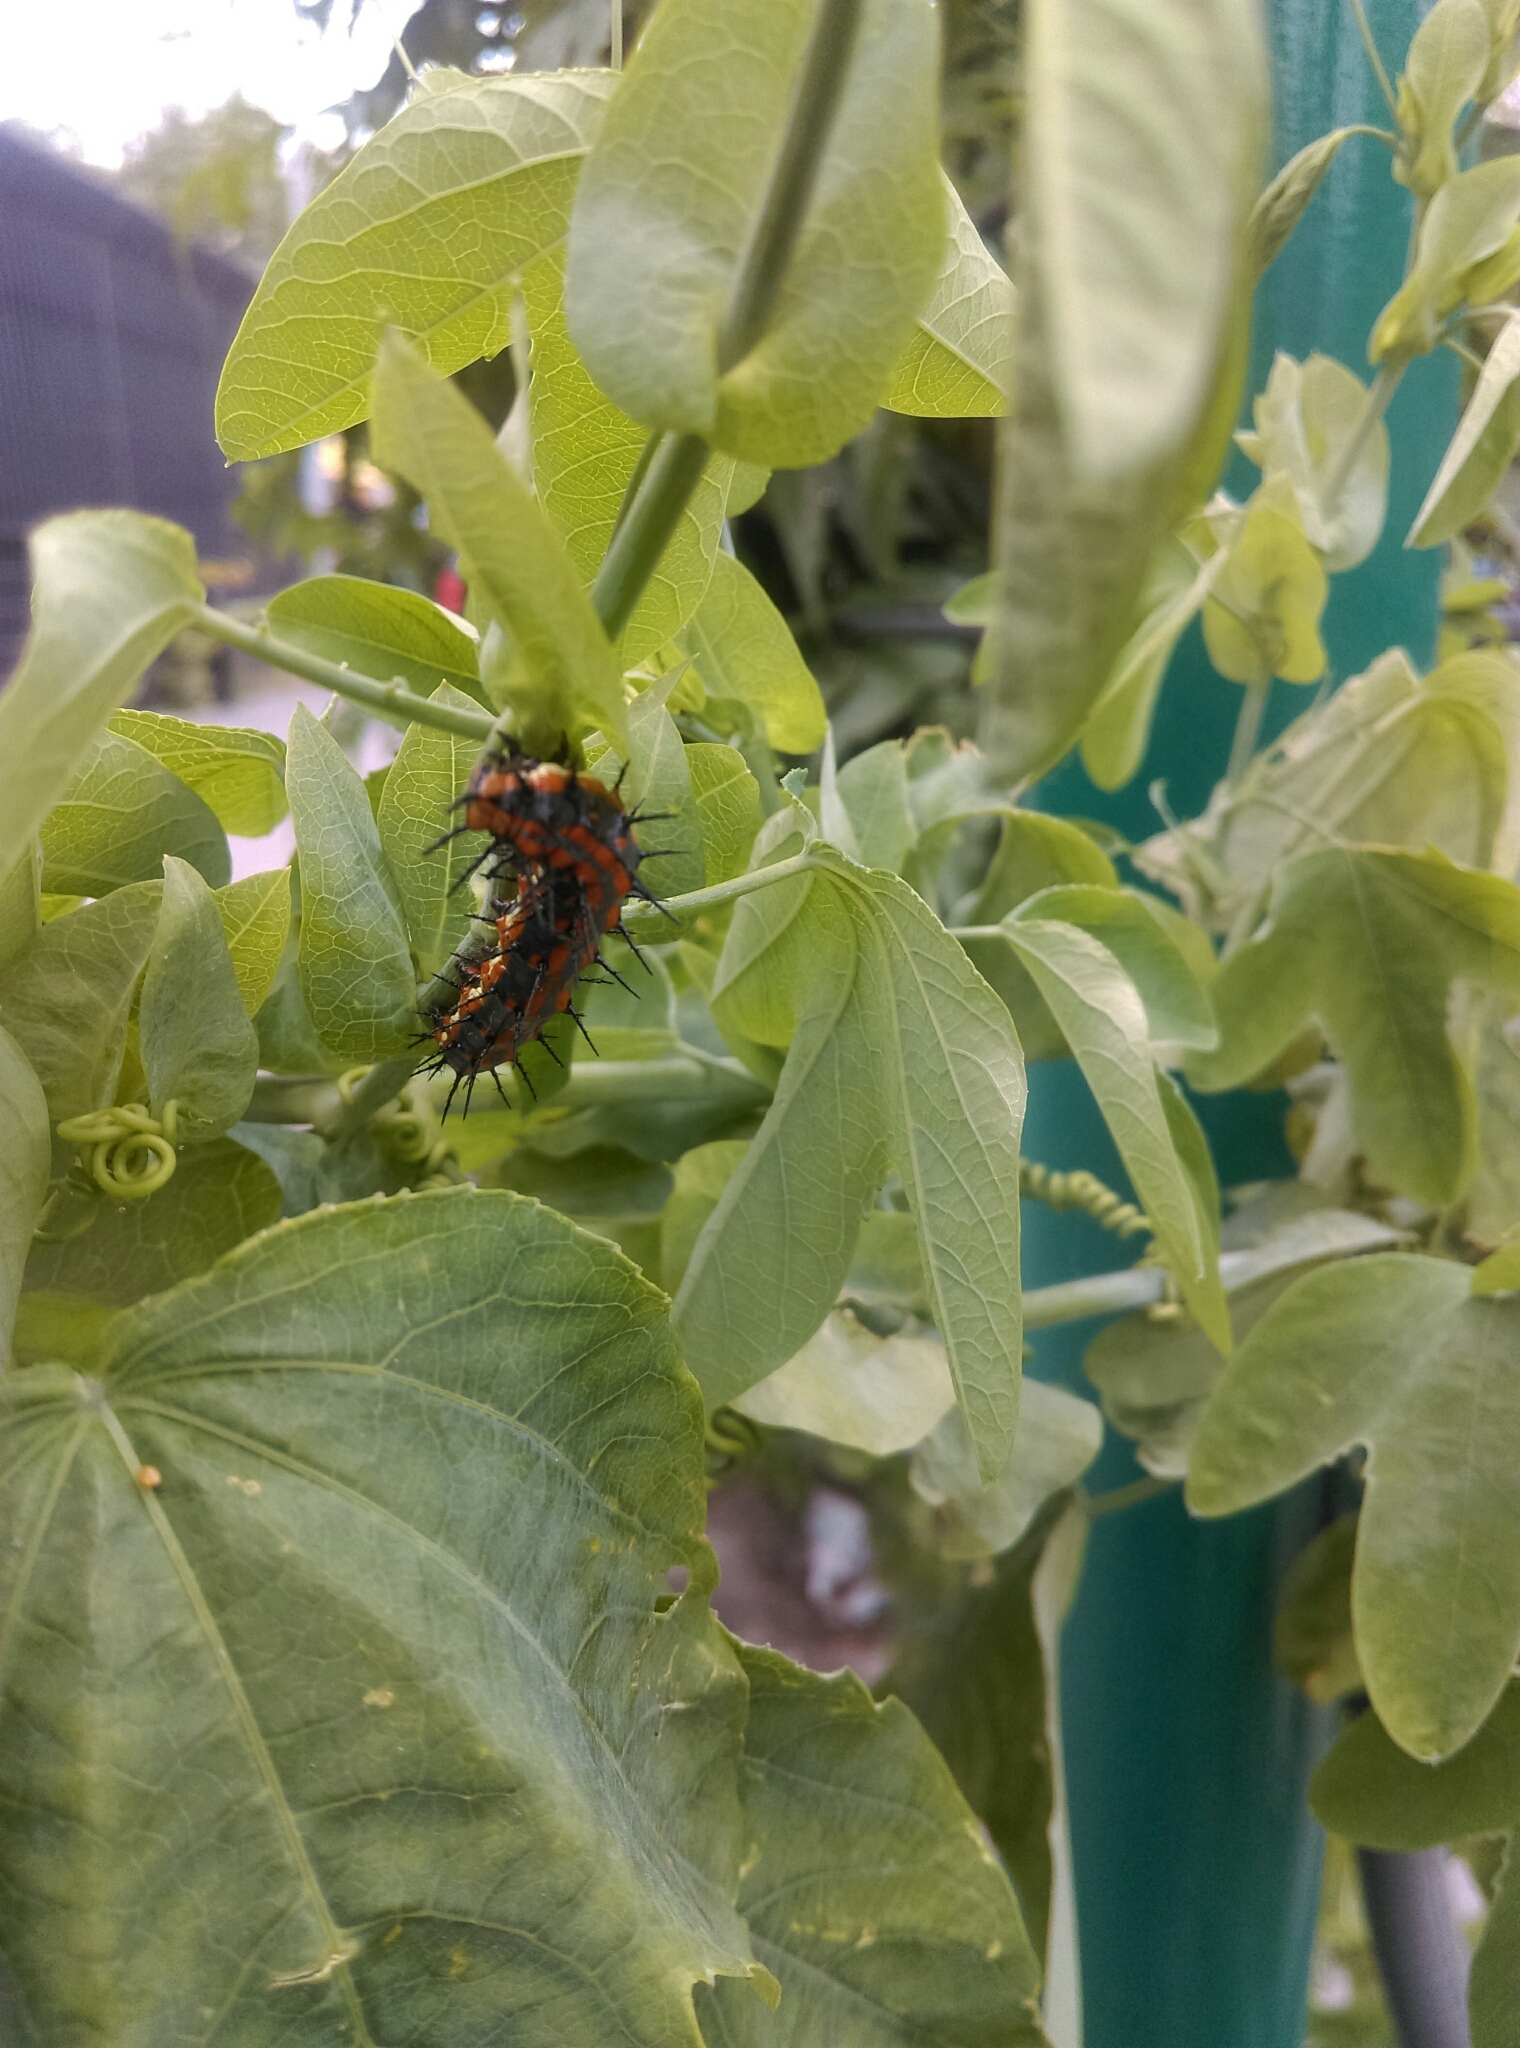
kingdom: Animalia
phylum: Arthropoda
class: Insecta
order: Lepidoptera
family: Nymphalidae
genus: Dione
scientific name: Dione vanillae
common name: Gulf fritillary
